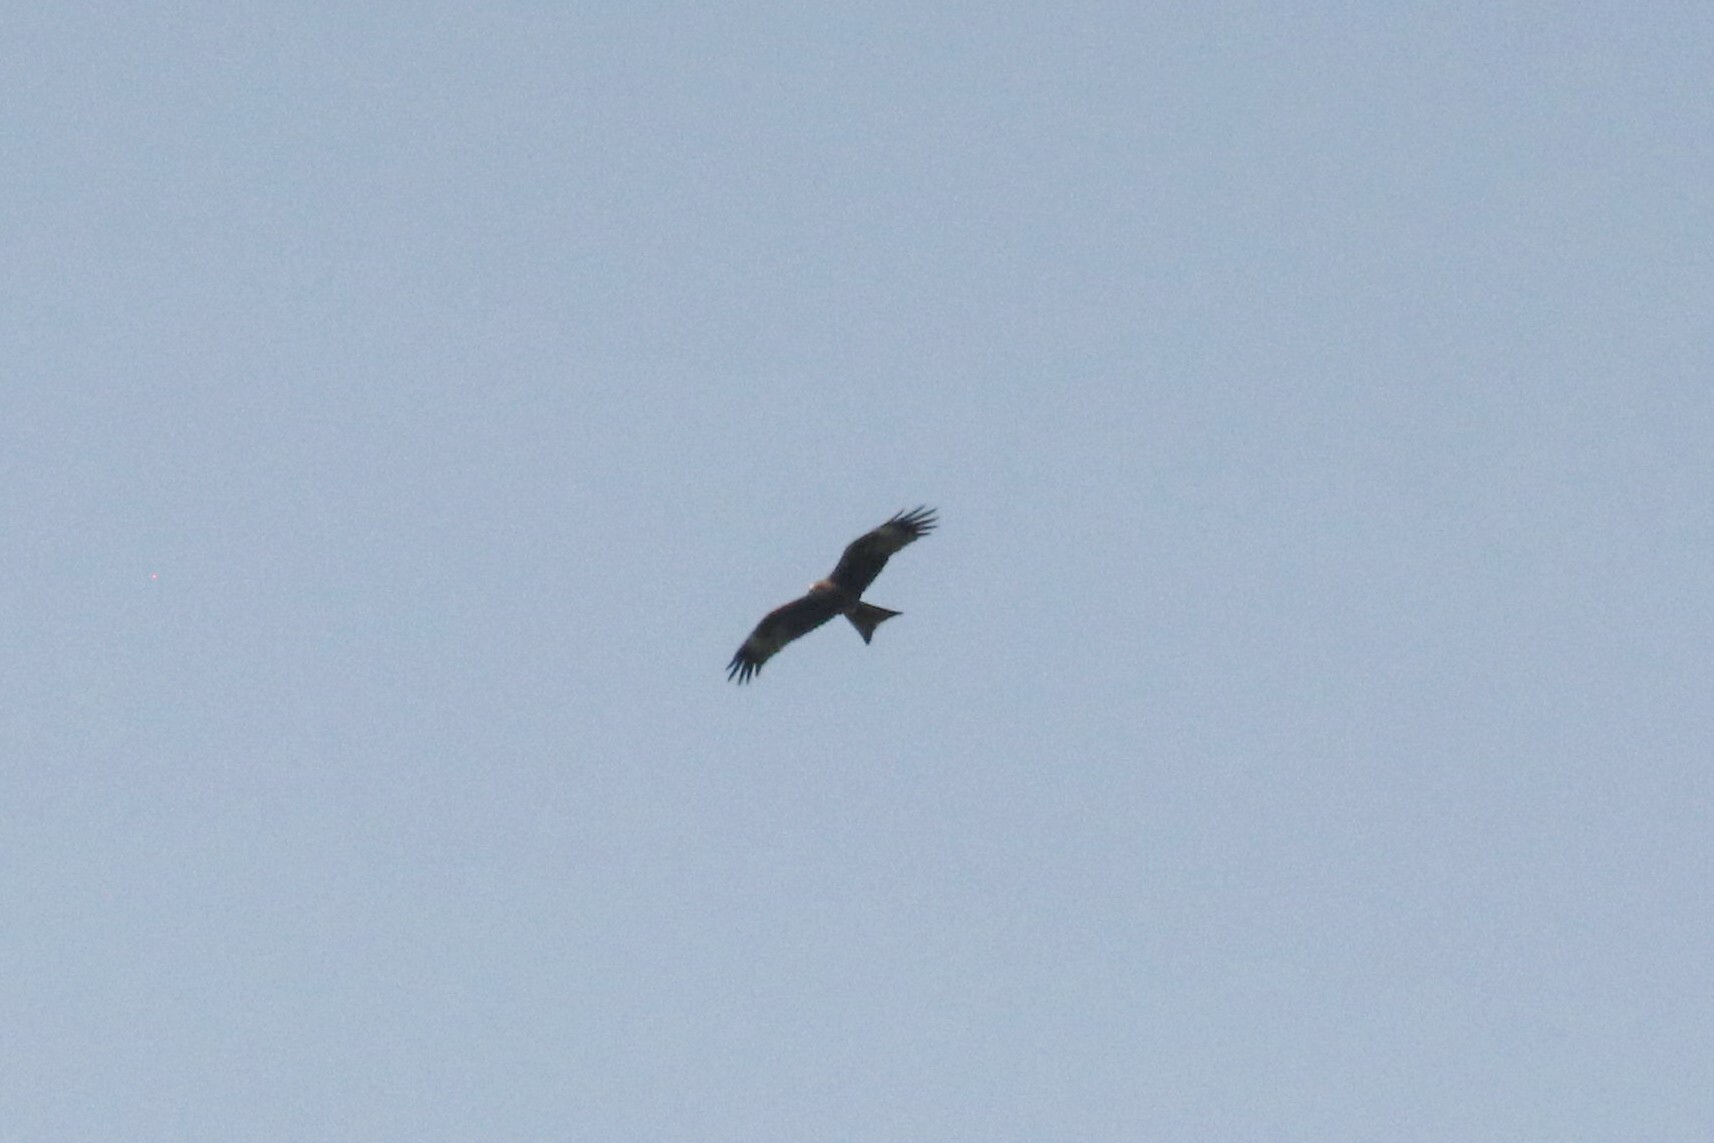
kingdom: Animalia
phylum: Chordata
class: Aves
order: Accipitriformes
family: Accipitridae
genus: Milvus
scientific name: Milvus migrans
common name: Black kite
